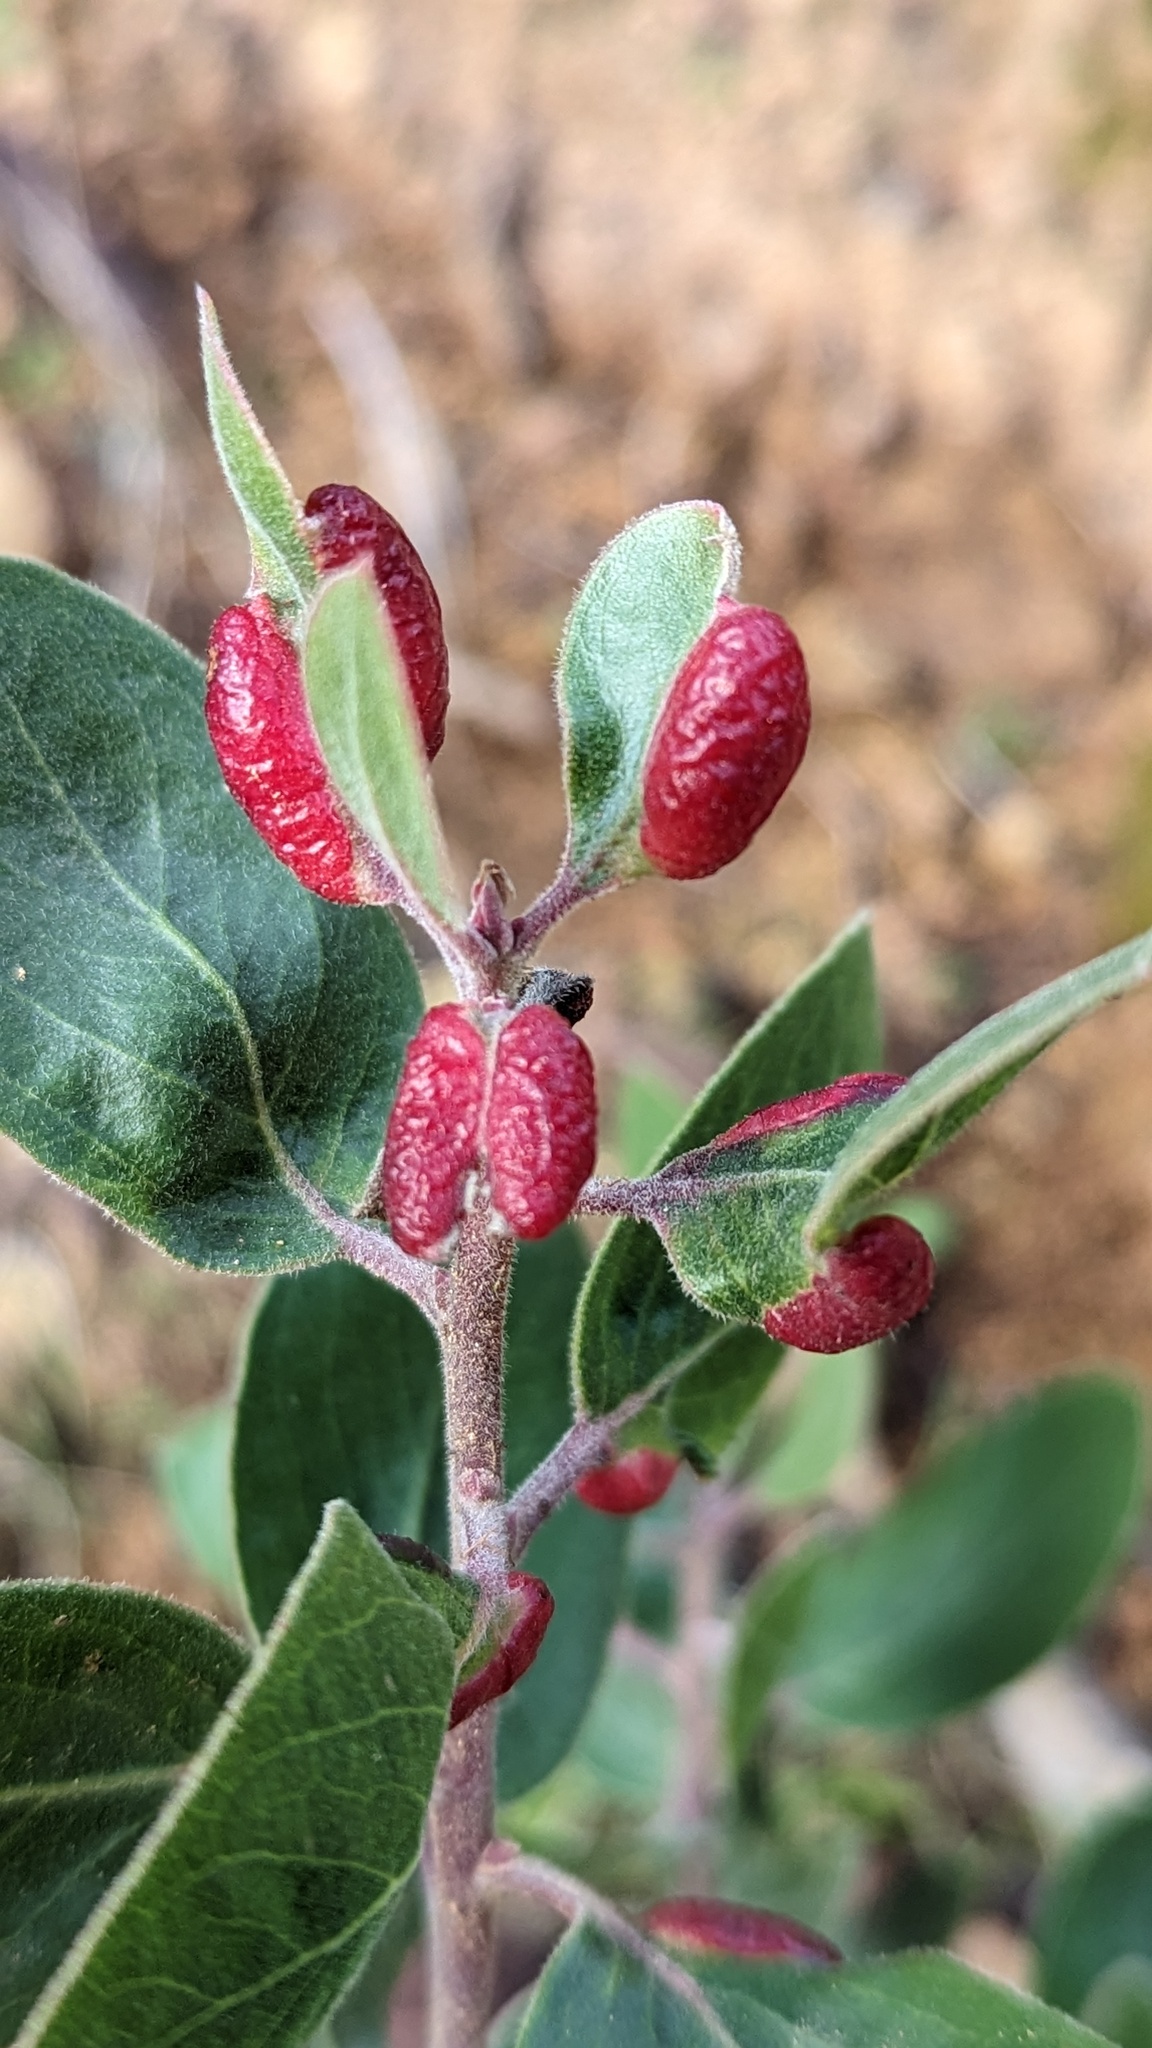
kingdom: Animalia
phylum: Arthropoda
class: Insecta
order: Hemiptera
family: Aphididae
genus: Tamalia
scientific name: Tamalia coweni
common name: Manzanita leafgall aphid
